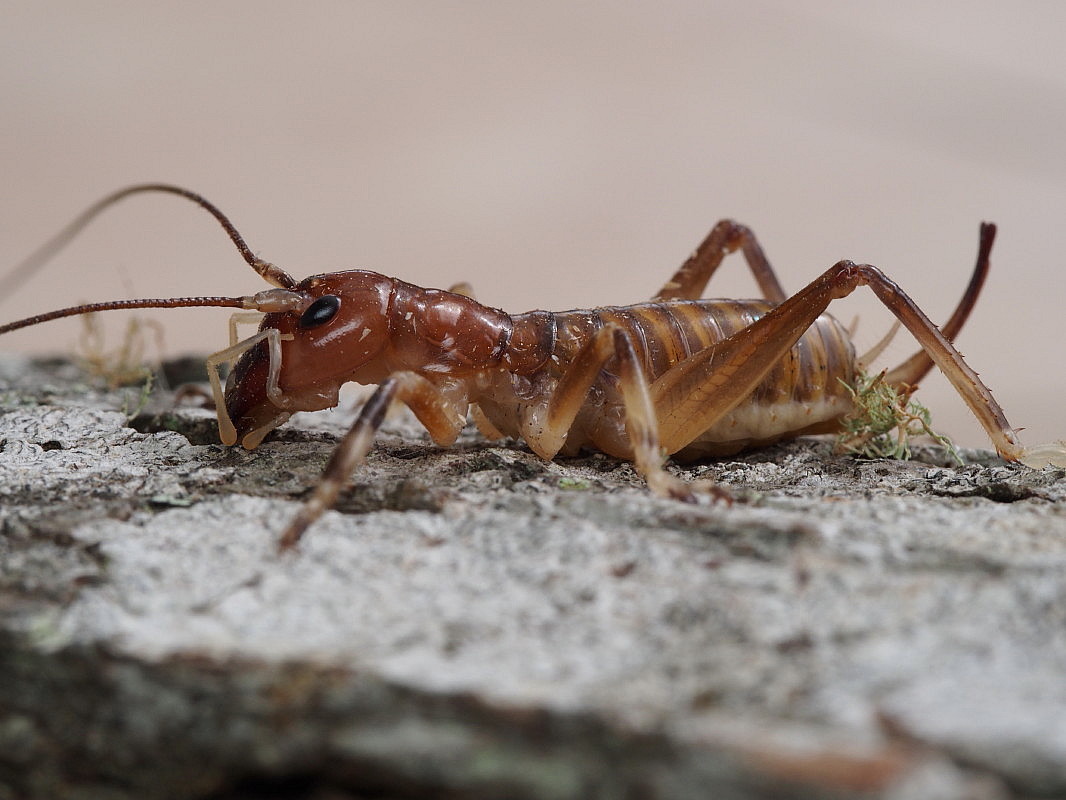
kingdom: Animalia
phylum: Arthropoda
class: Insecta
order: Orthoptera
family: Anostostomatidae
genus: Anisoura
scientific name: Anisoura nicobarica
